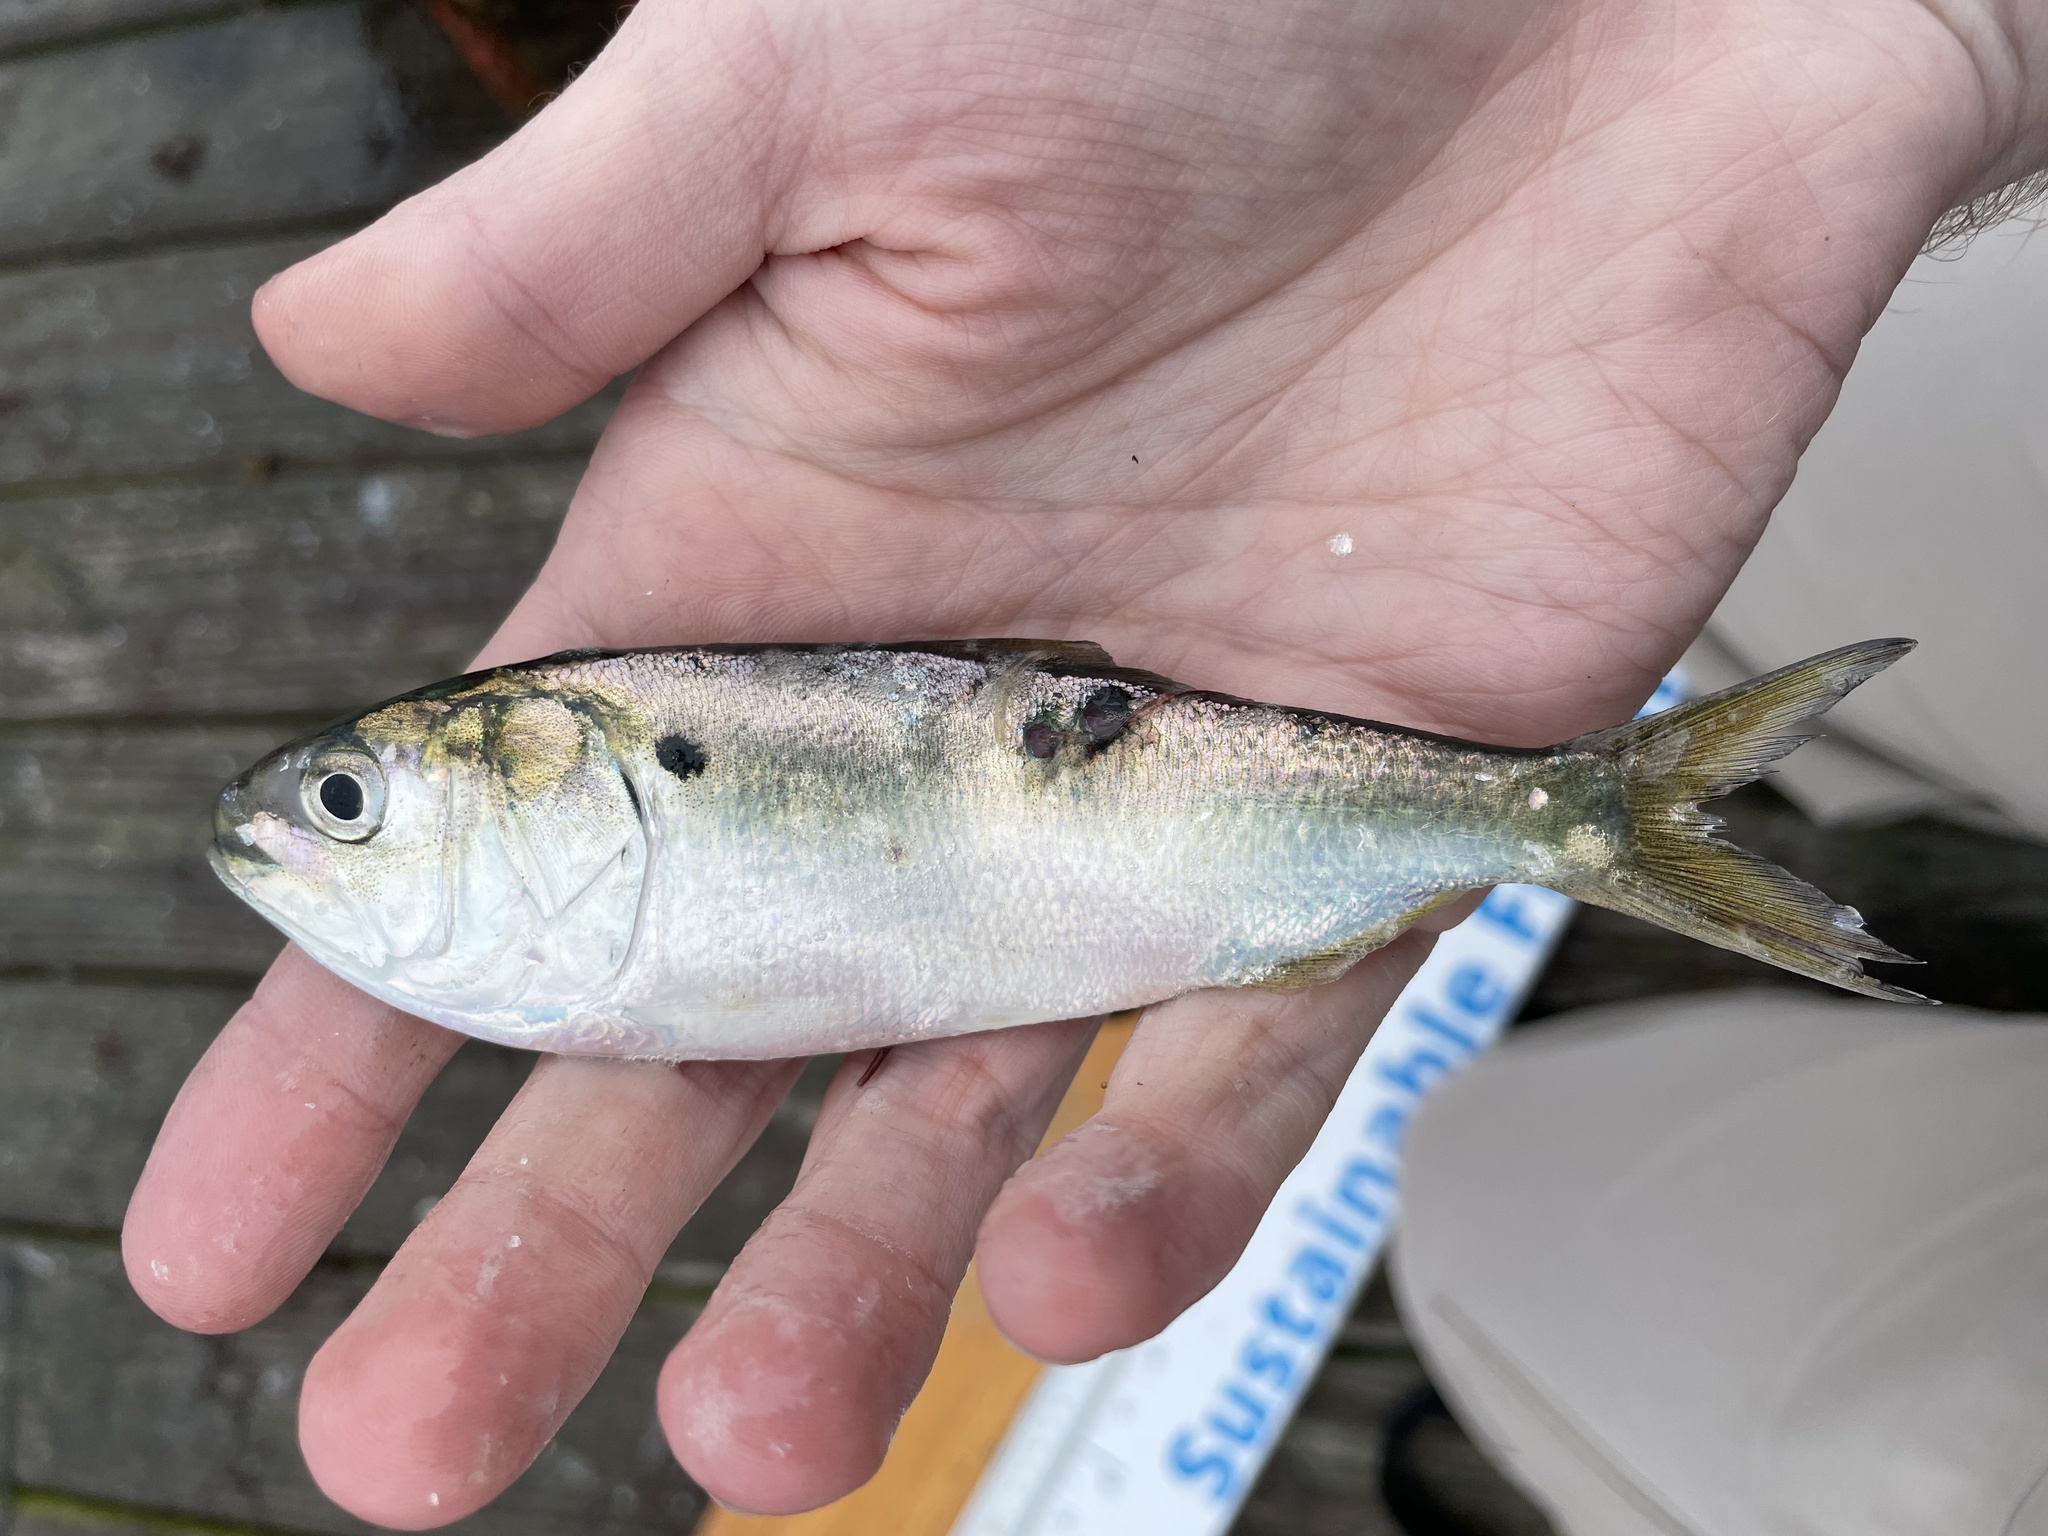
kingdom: Animalia
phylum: Chordata
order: Clupeiformes
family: Clupeidae
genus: Brevoortia
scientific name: Brevoortia tyrannus
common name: Atlantic menhaden
